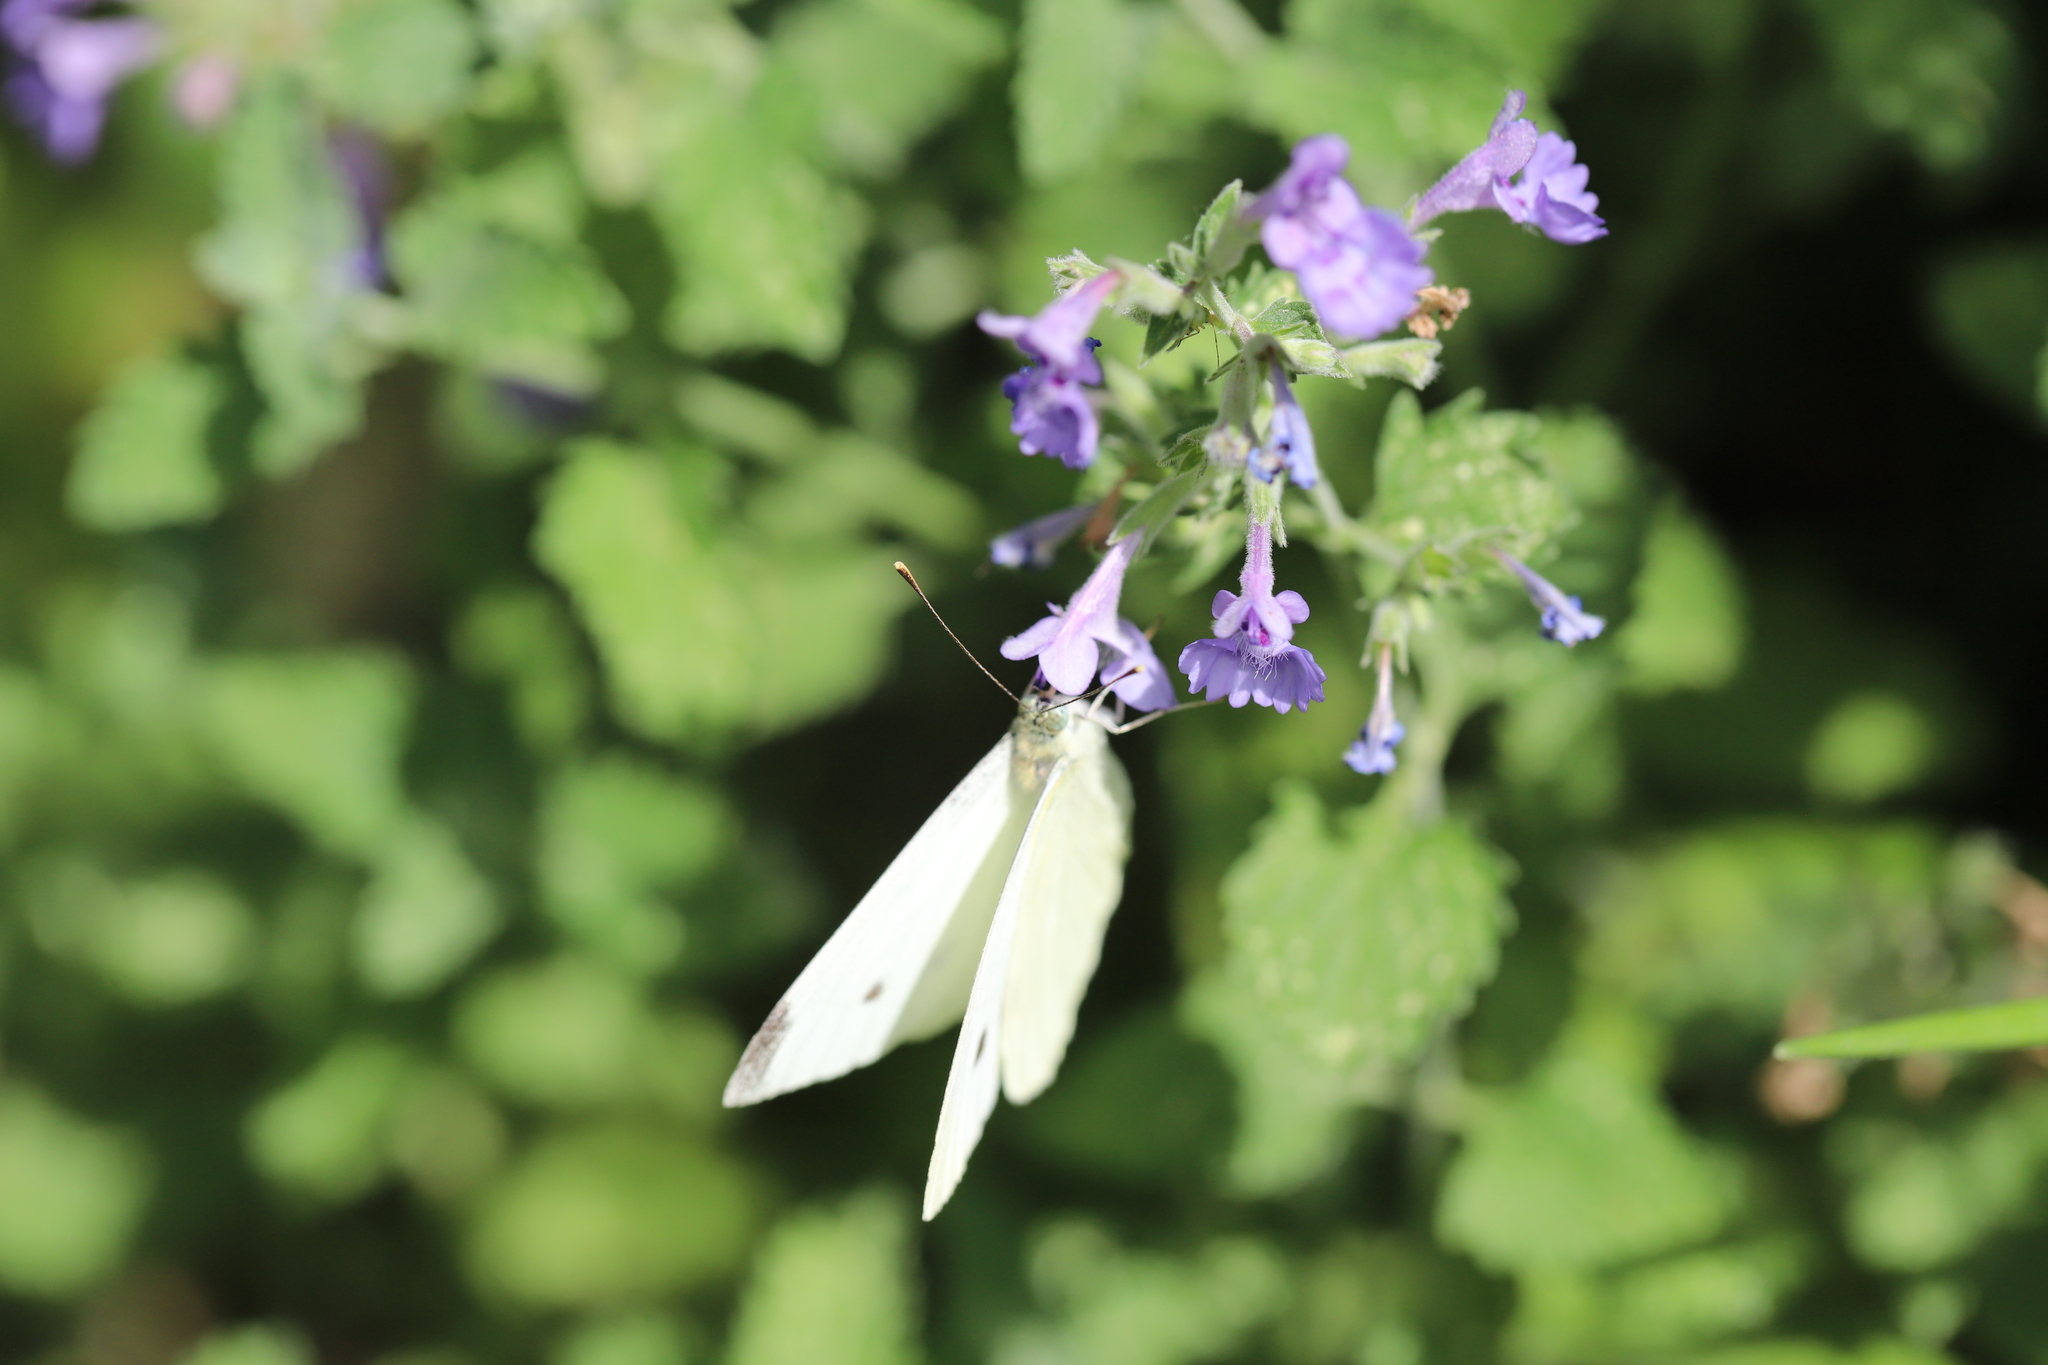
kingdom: Animalia
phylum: Arthropoda
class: Insecta
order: Lepidoptera
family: Pieridae
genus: Pieris
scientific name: Pieris rapae
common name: Small white
